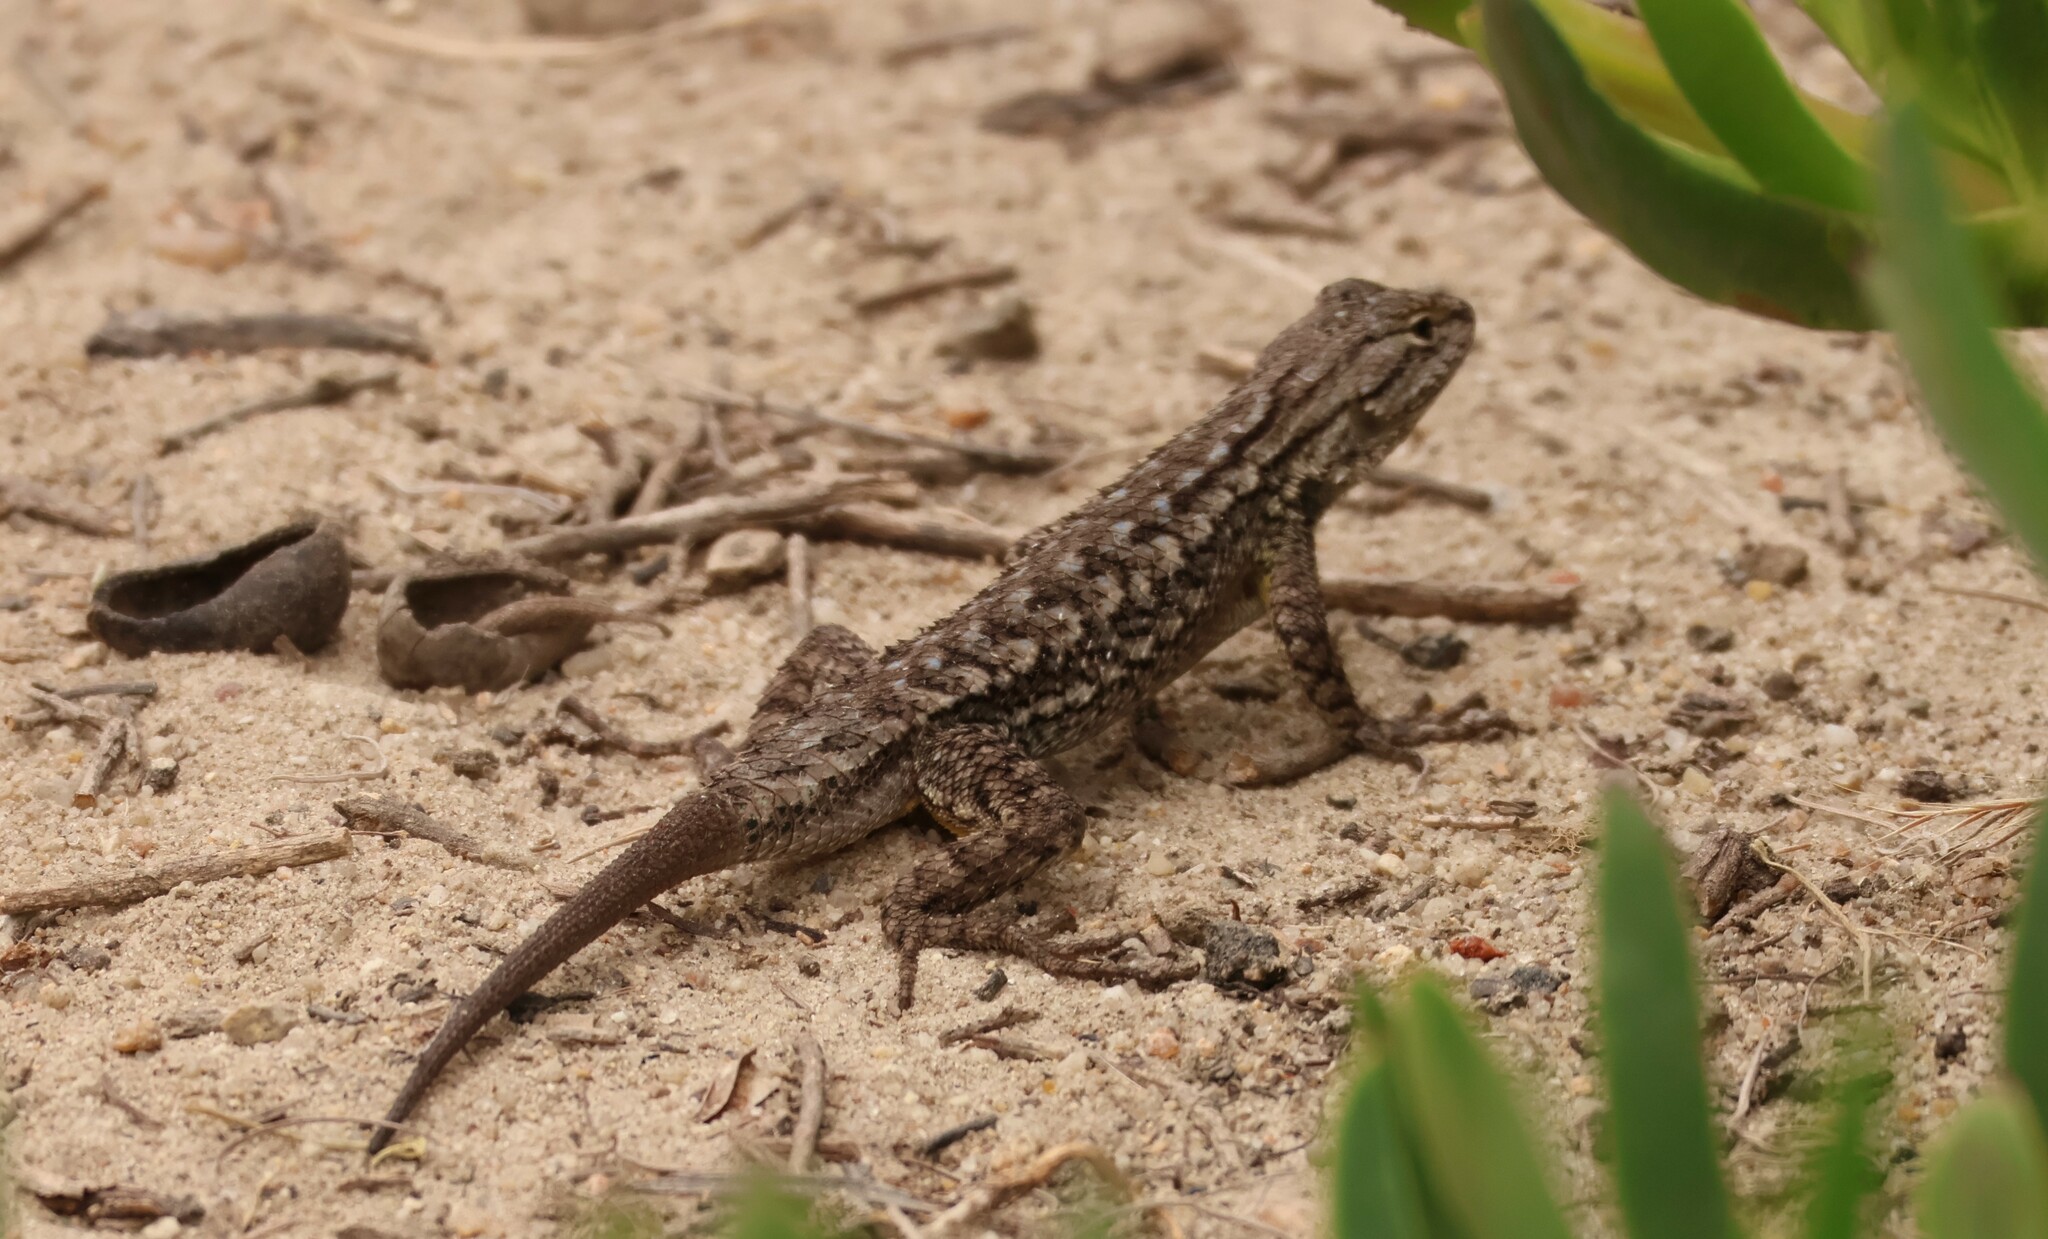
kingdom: Animalia
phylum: Chordata
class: Squamata
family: Phrynosomatidae
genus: Sceloporus
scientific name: Sceloporus occidentalis
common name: Western fence lizard
